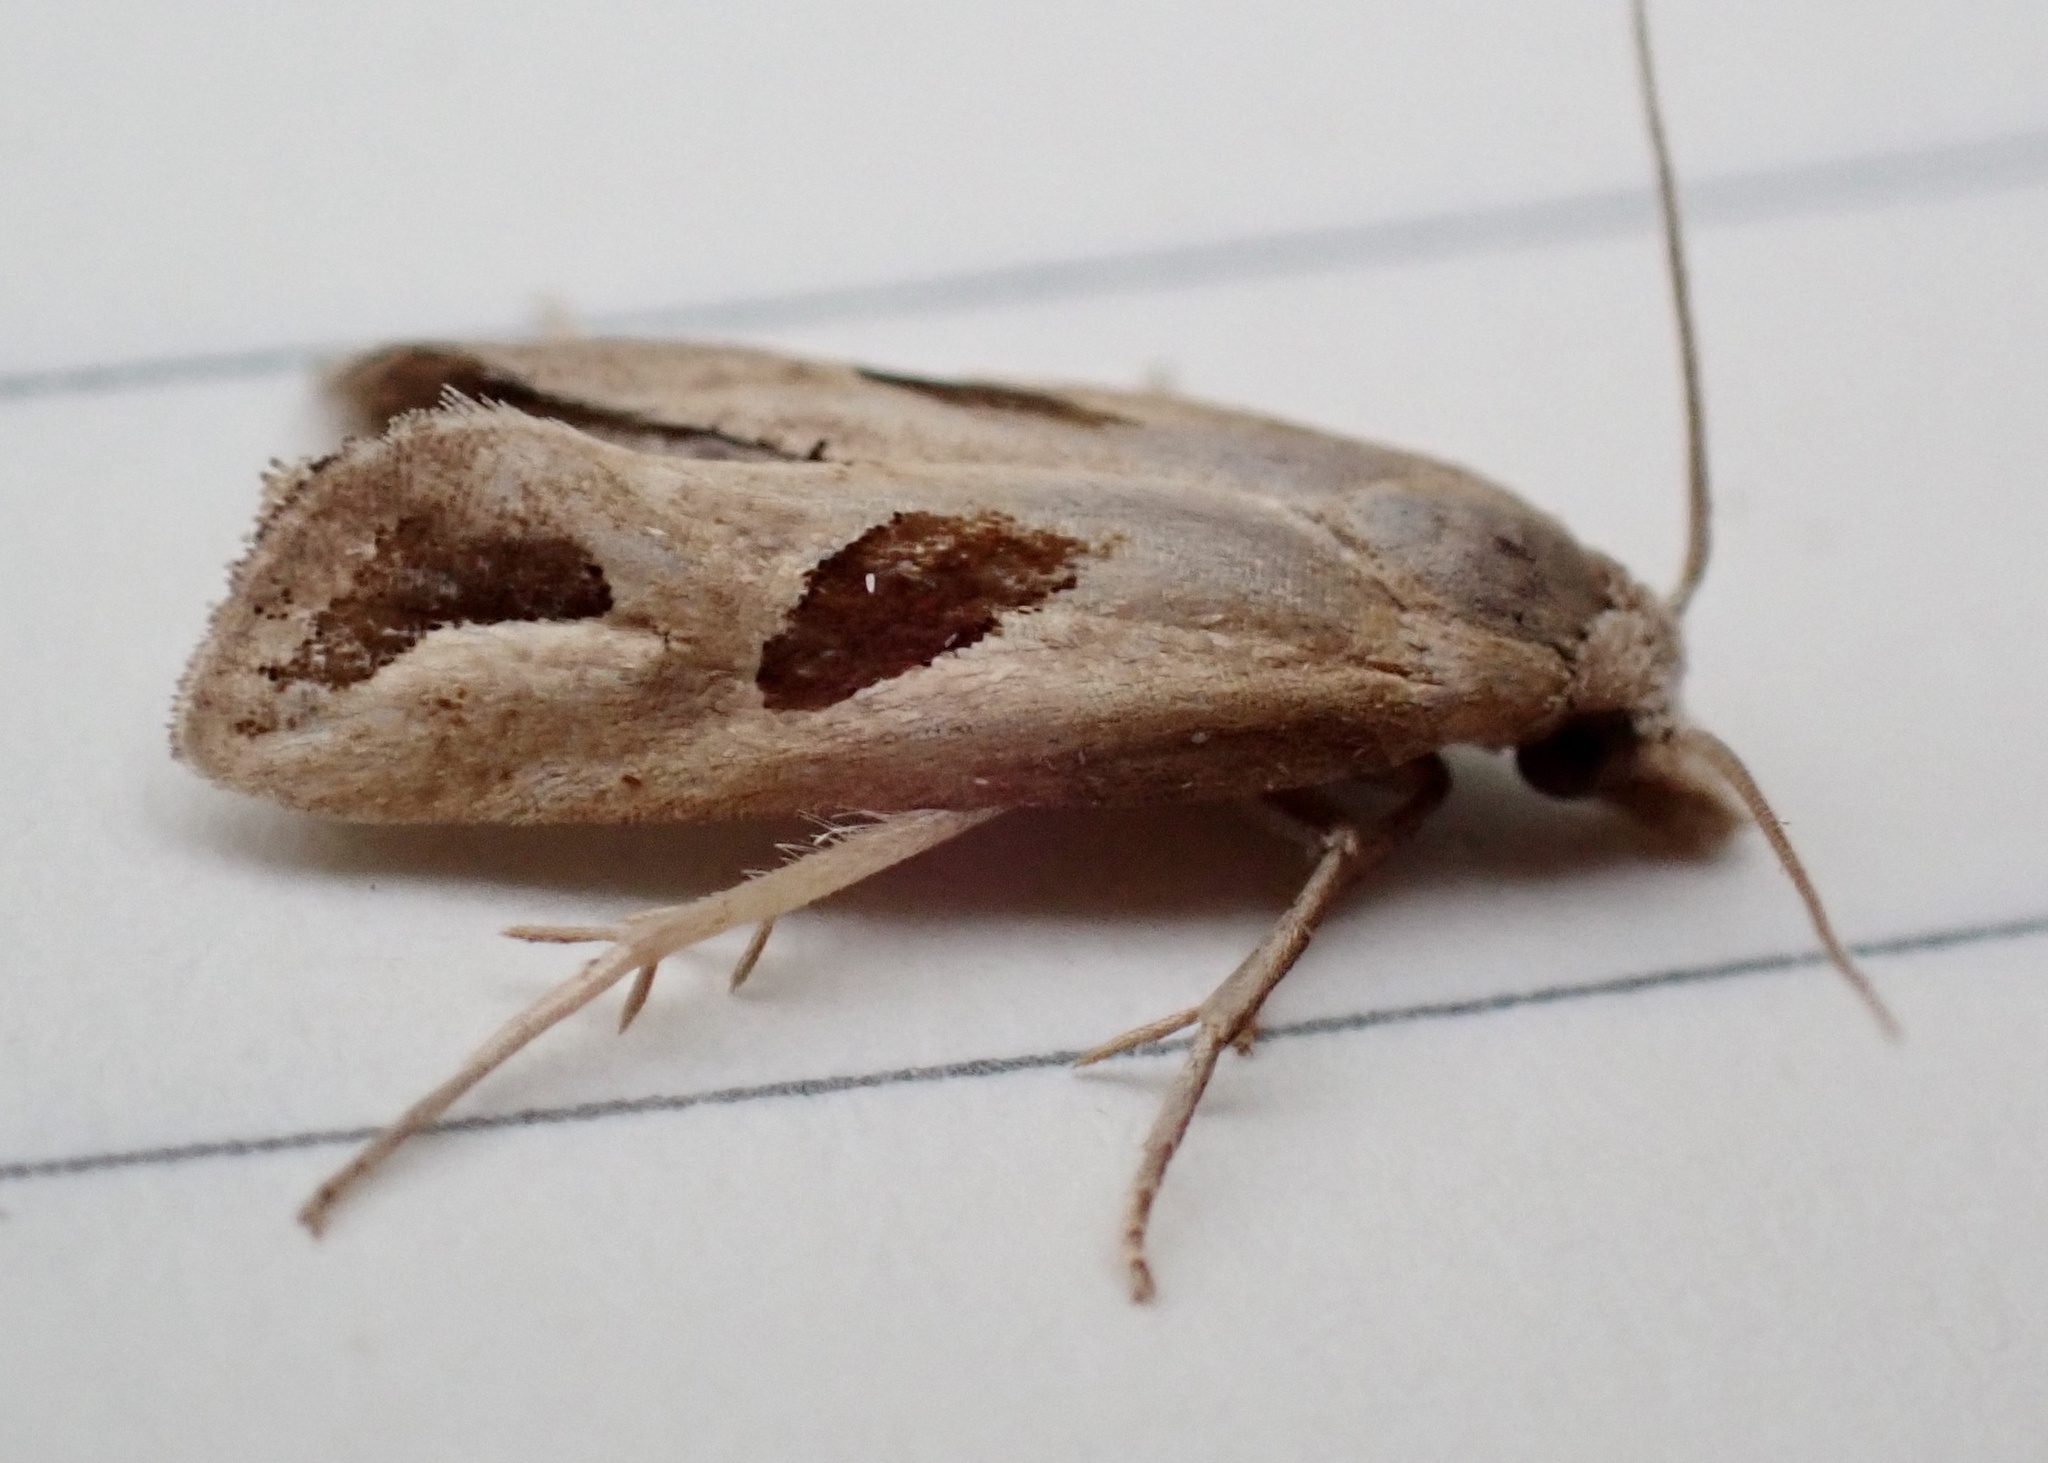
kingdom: Animalia
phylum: Arthropoda
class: Insecta
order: Lepidoptera
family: Tortricidae
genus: Eugnosta
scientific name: Eugnosta bimaculana
